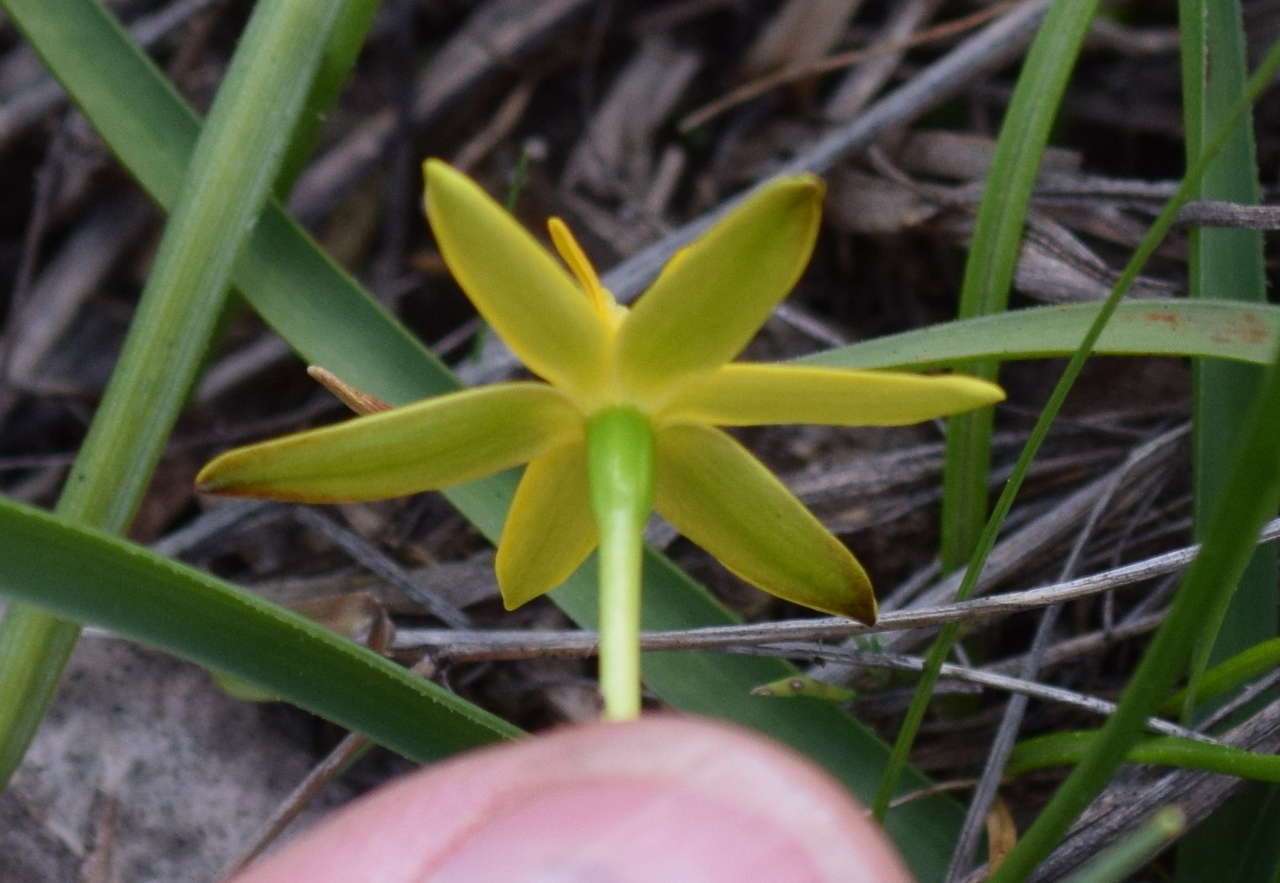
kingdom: Plantae
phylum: Tracheophyta
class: Liliopsida
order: Asparagales
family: Hypoxidaceae
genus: Pauridia
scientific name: Pauridia vaginata
